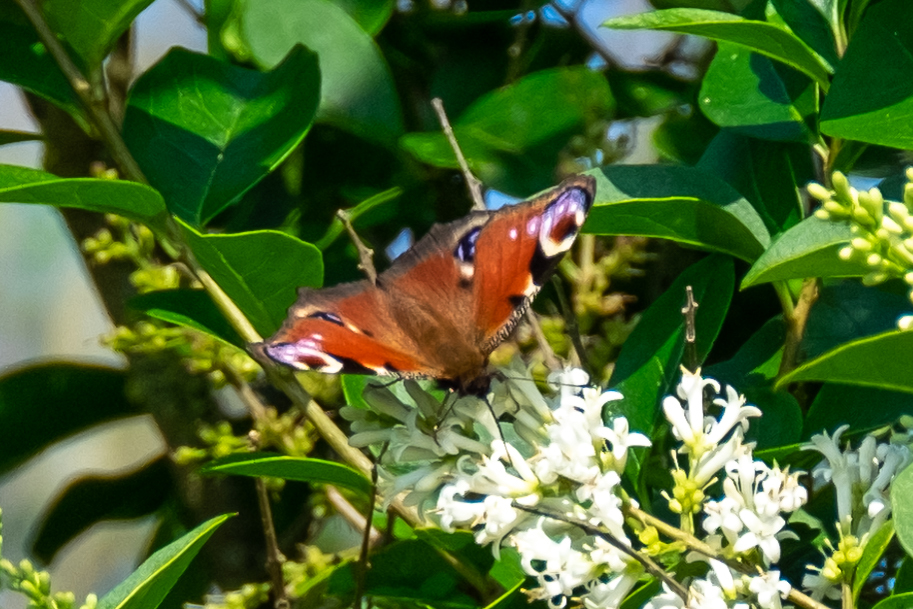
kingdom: Animalia
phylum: Arthropoda
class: Insecta
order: Lepidoptera
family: Nymphalidae
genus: Aglais
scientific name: Aglais io
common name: Peacock
